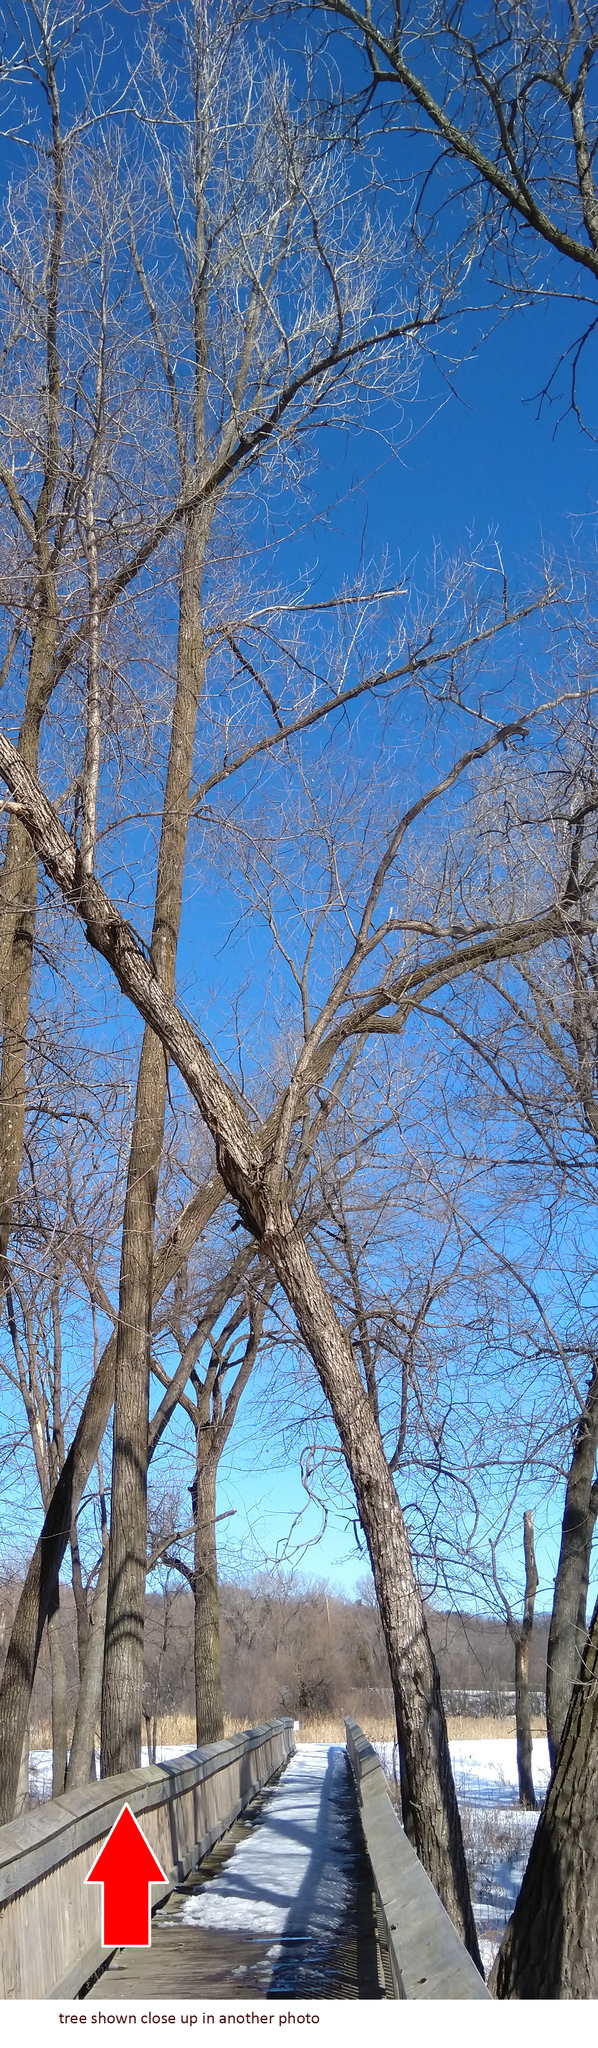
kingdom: Plantae
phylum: Tracheophyta
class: Magnoliopsida
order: Malpighiales
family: Salicaceae
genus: Populus
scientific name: Populus deltoides
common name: Eastern cottonwood
